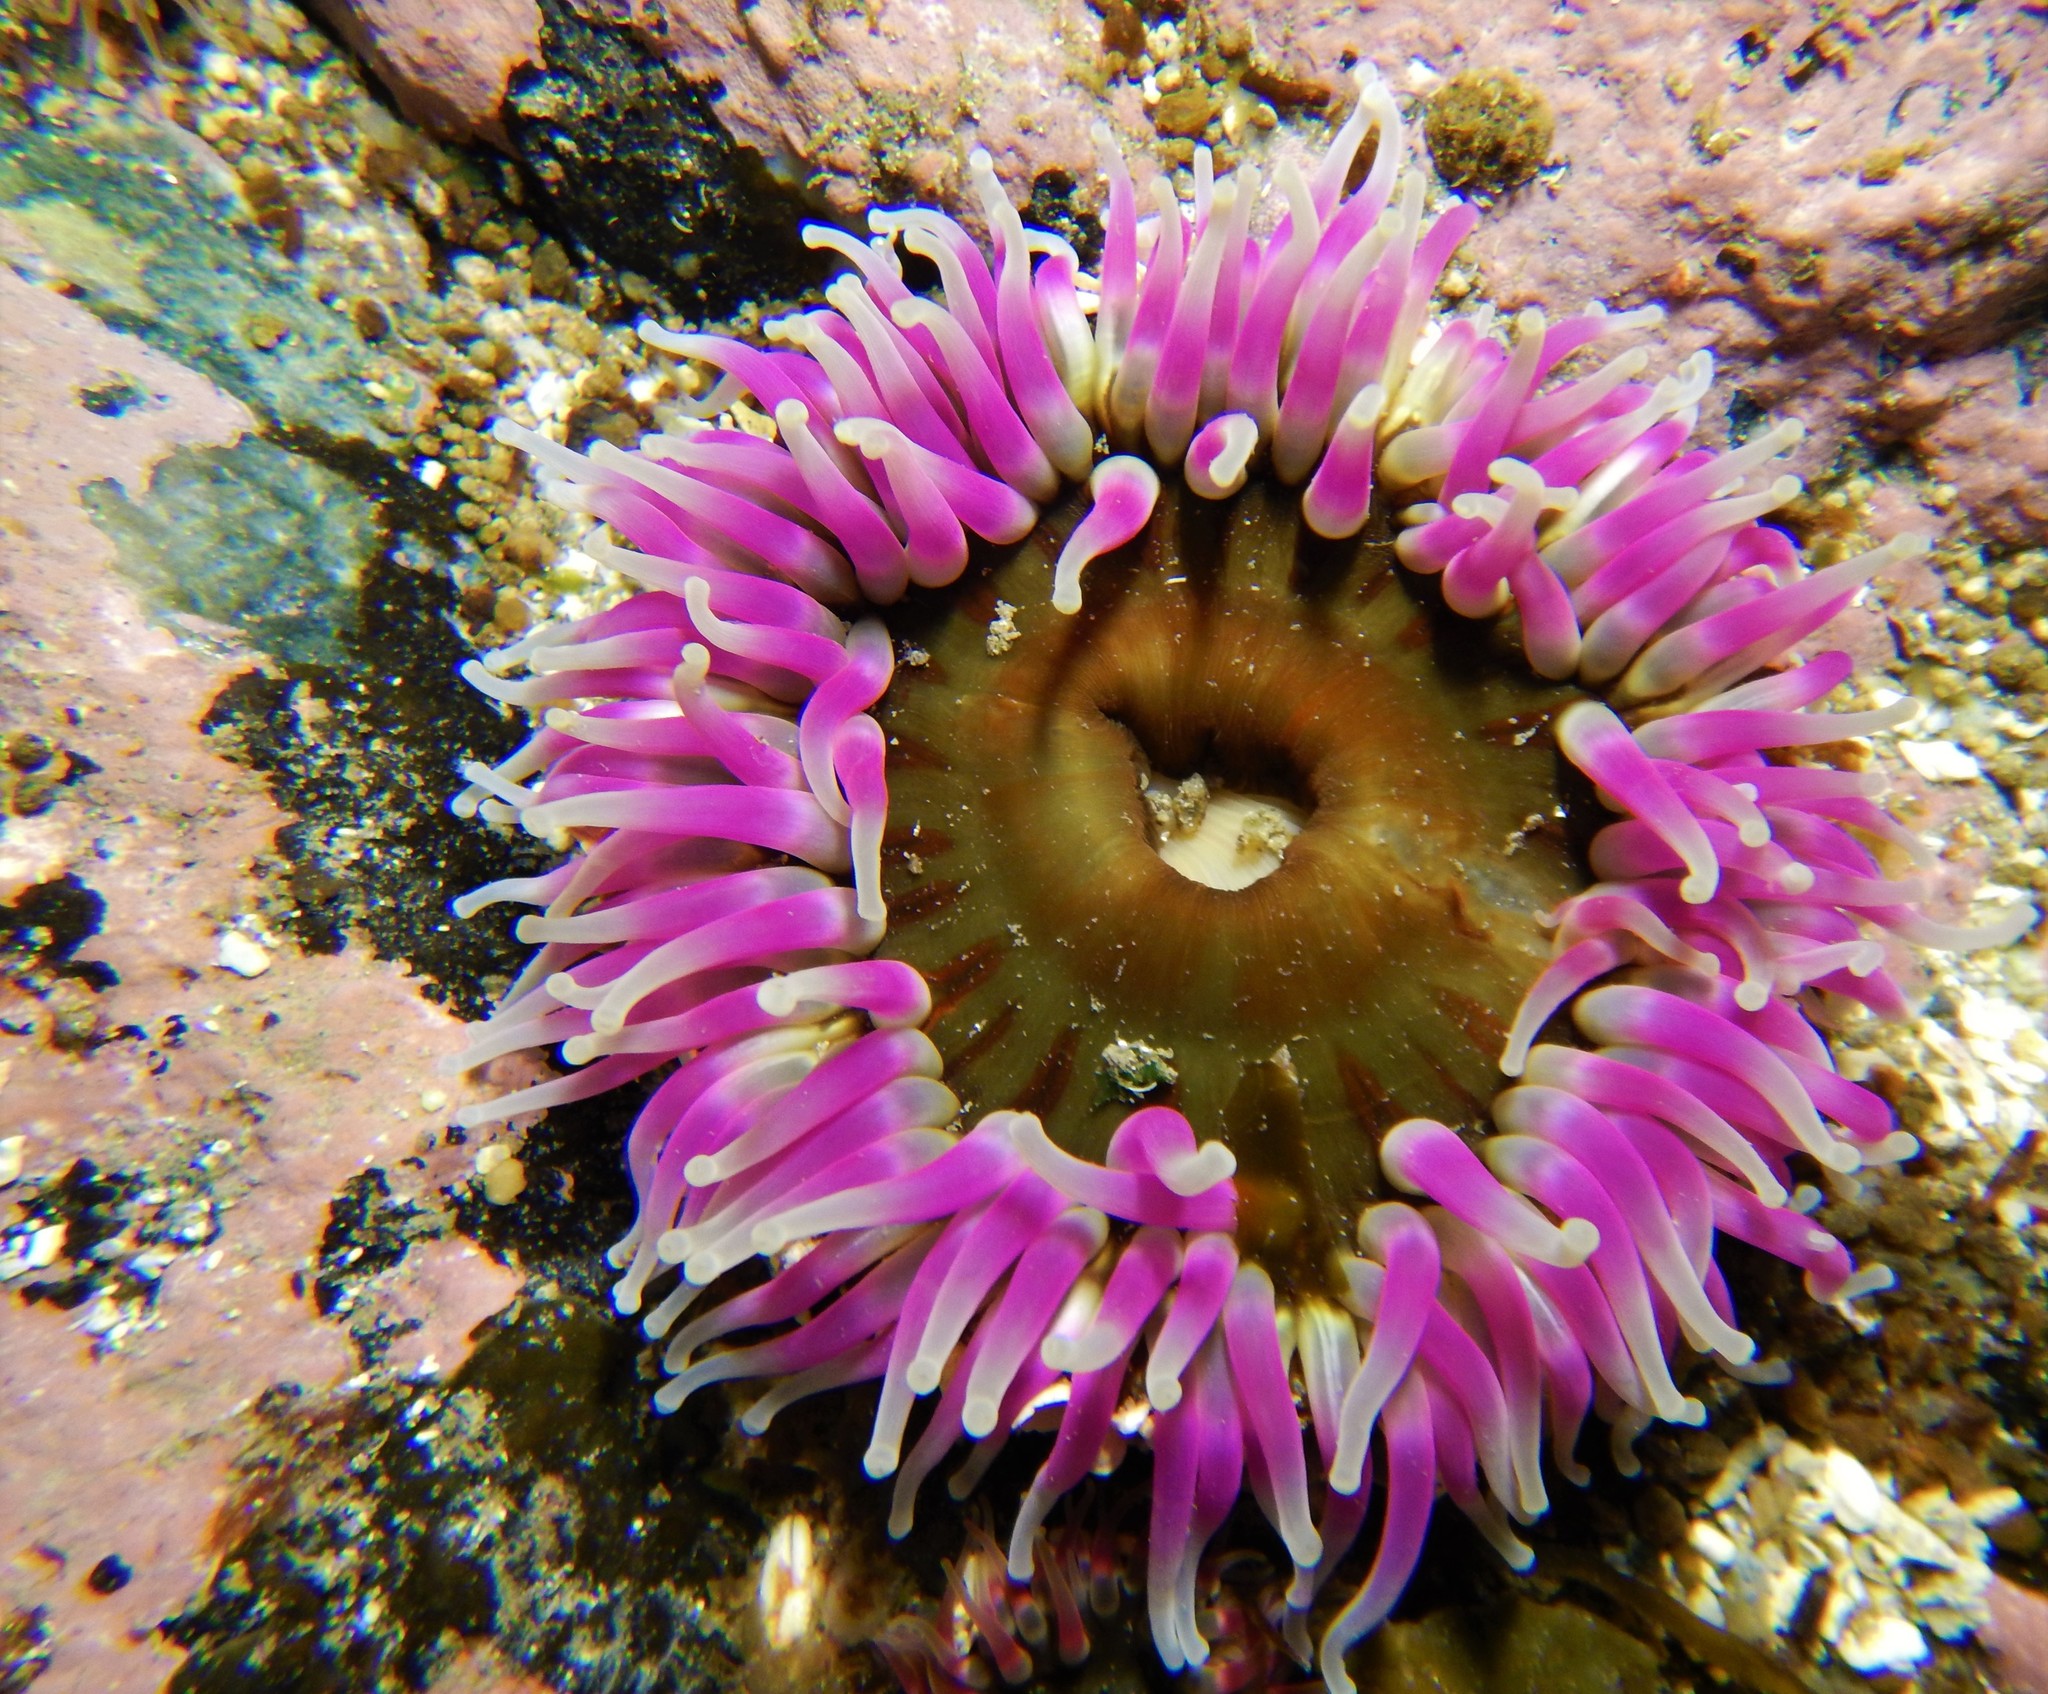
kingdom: Animalia
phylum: Cnidaria
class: Anthozoa
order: Actiniaria
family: Actiniidae
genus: Urticina
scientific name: Urticina felina
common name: Dahlia anemone
